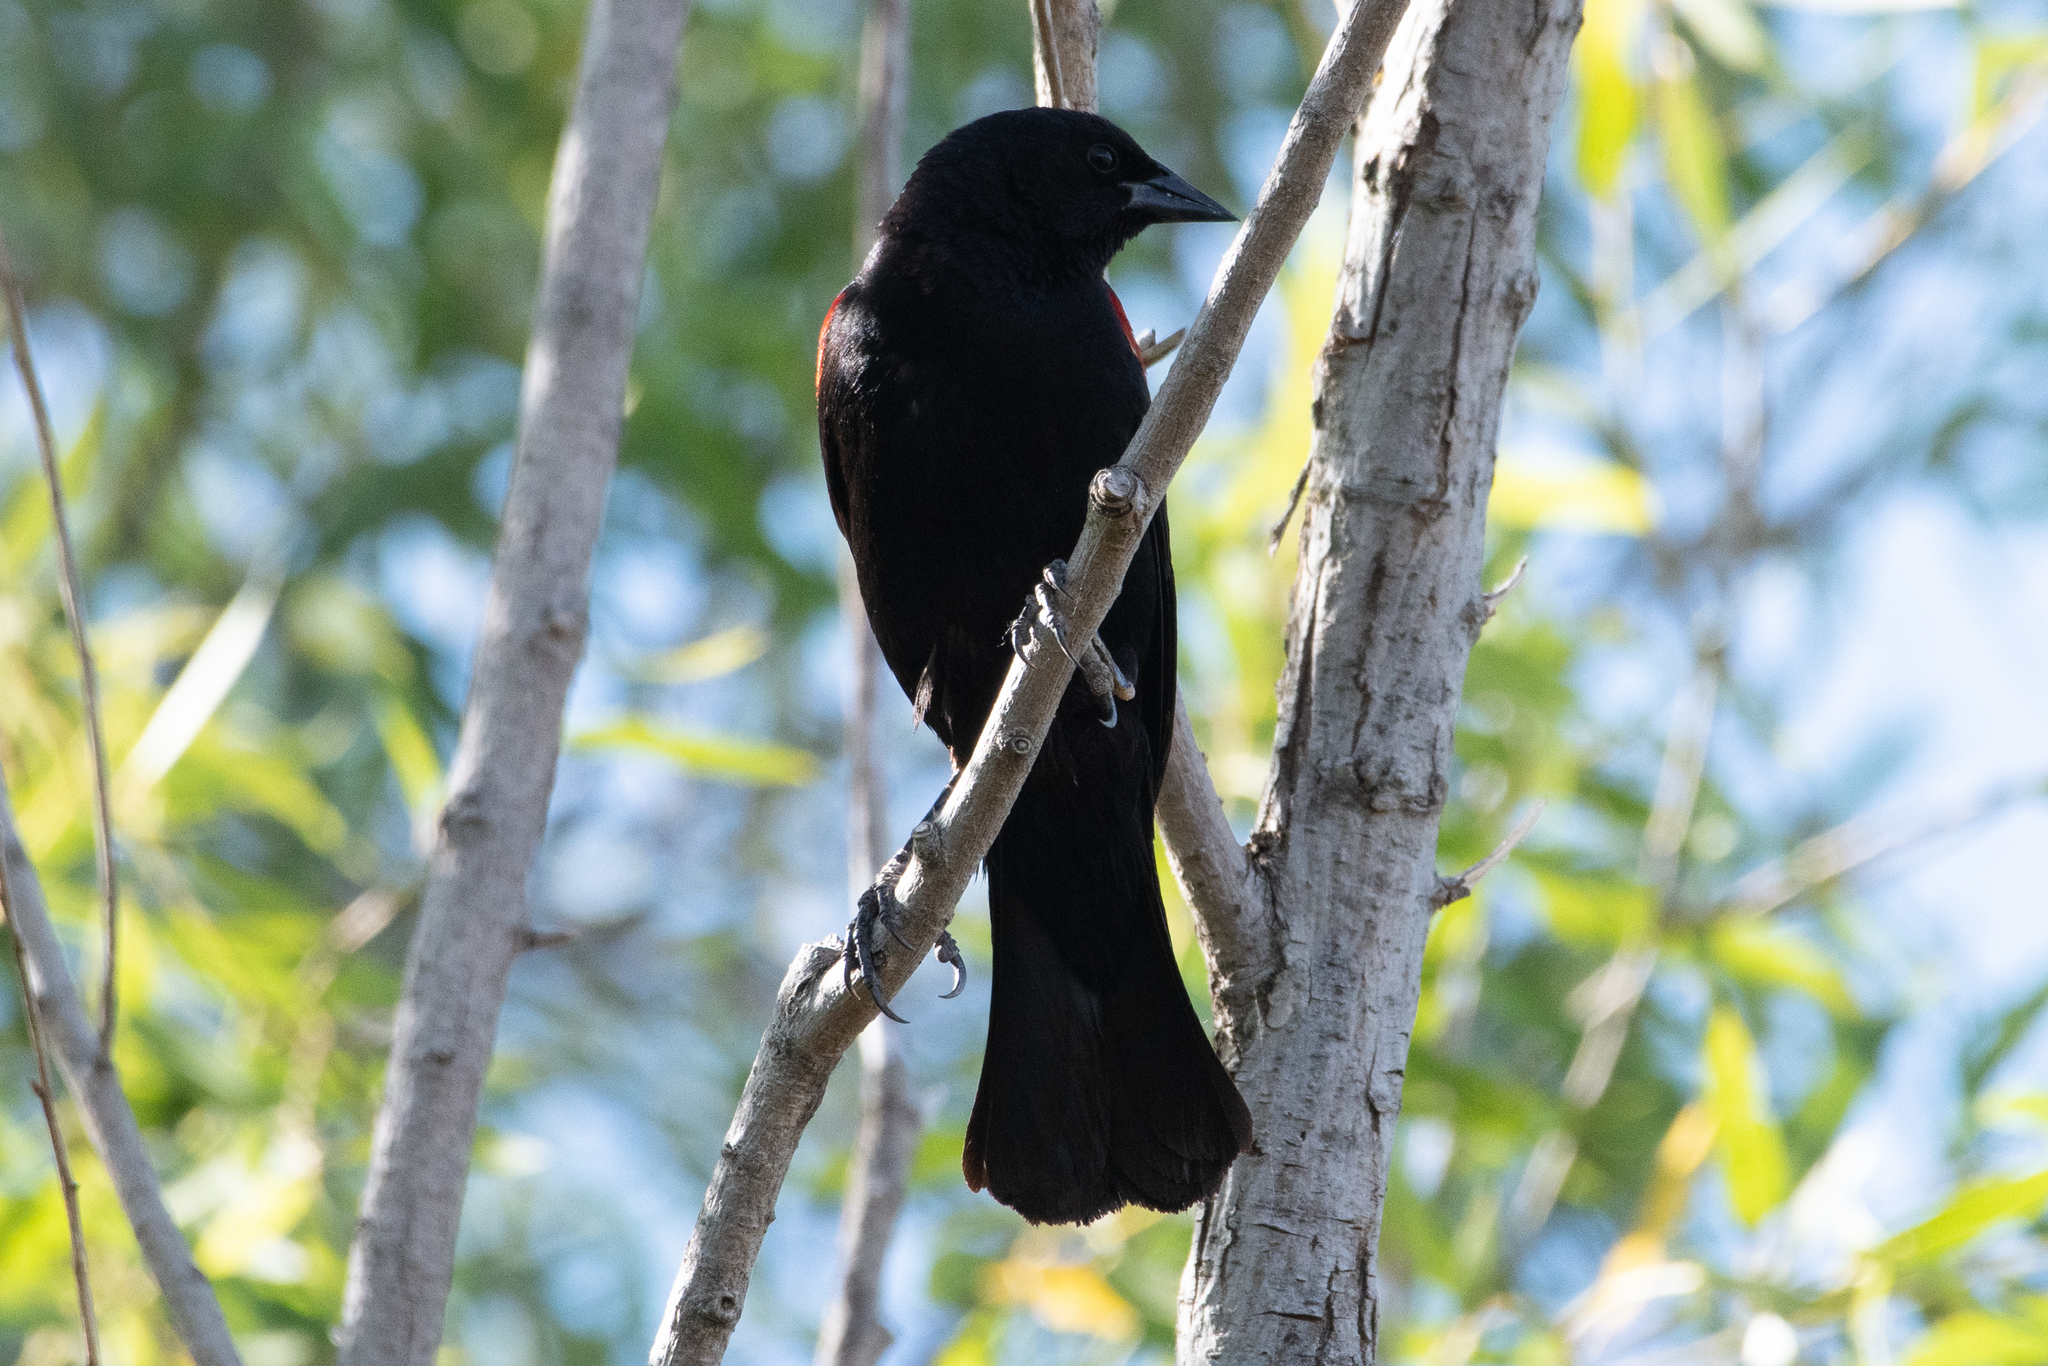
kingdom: Animalia
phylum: Chordata
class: Aves
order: Passeriformes
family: Icteridae
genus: Agelaius
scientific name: Agelaius phoeniceus
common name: Red-winged blackbird
